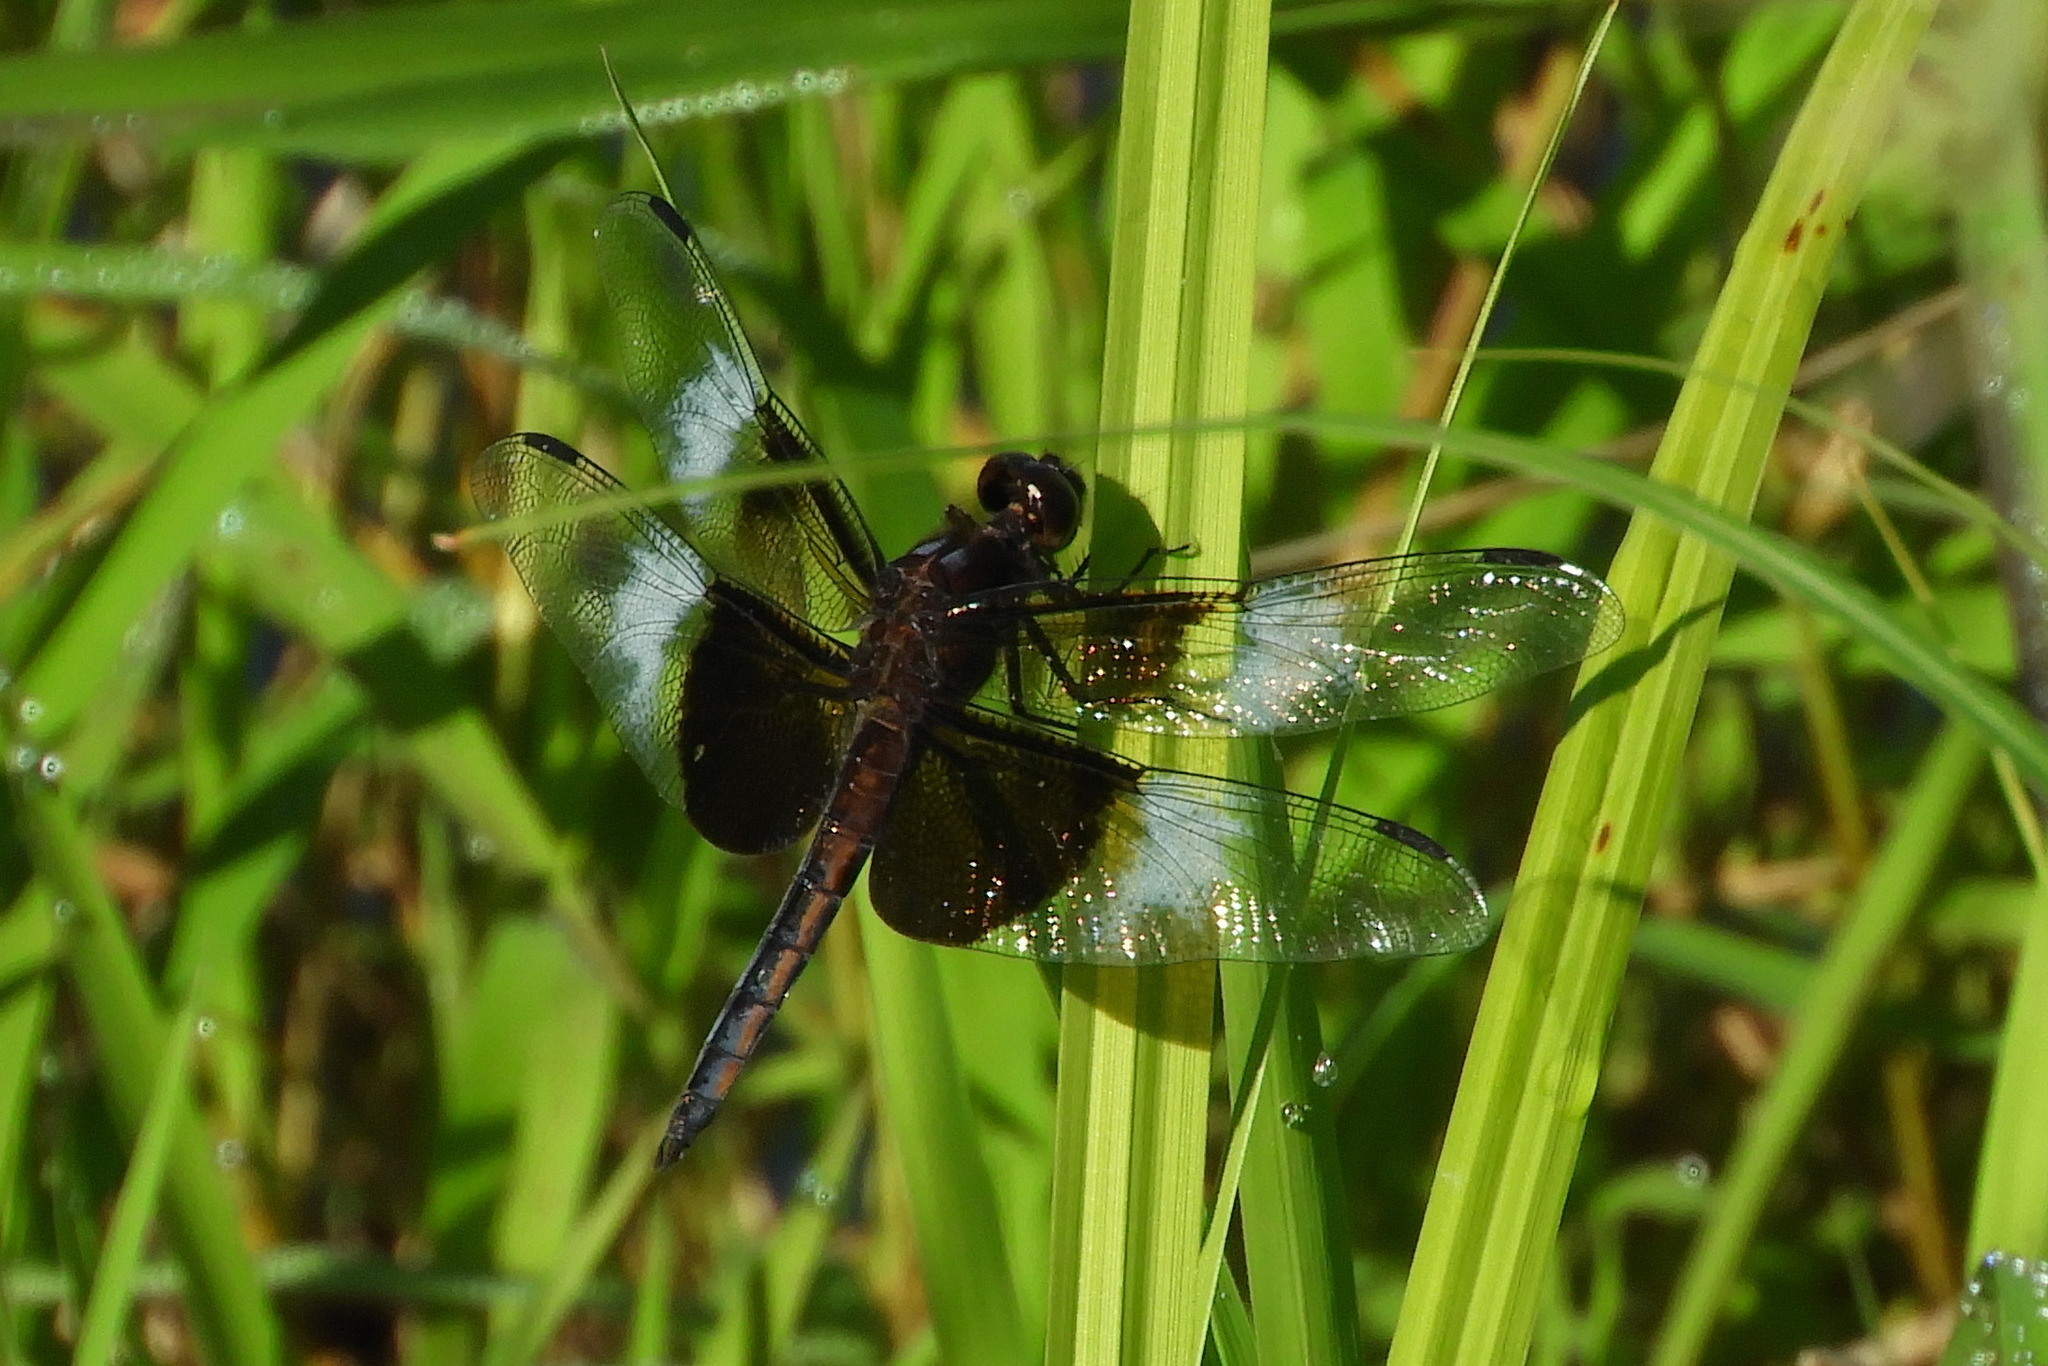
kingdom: Animalia
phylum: Arthropoda
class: Insecta
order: Odonata
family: Libellulidae
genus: Libellula
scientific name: Libellula luctuosa
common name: Widow skimmer
